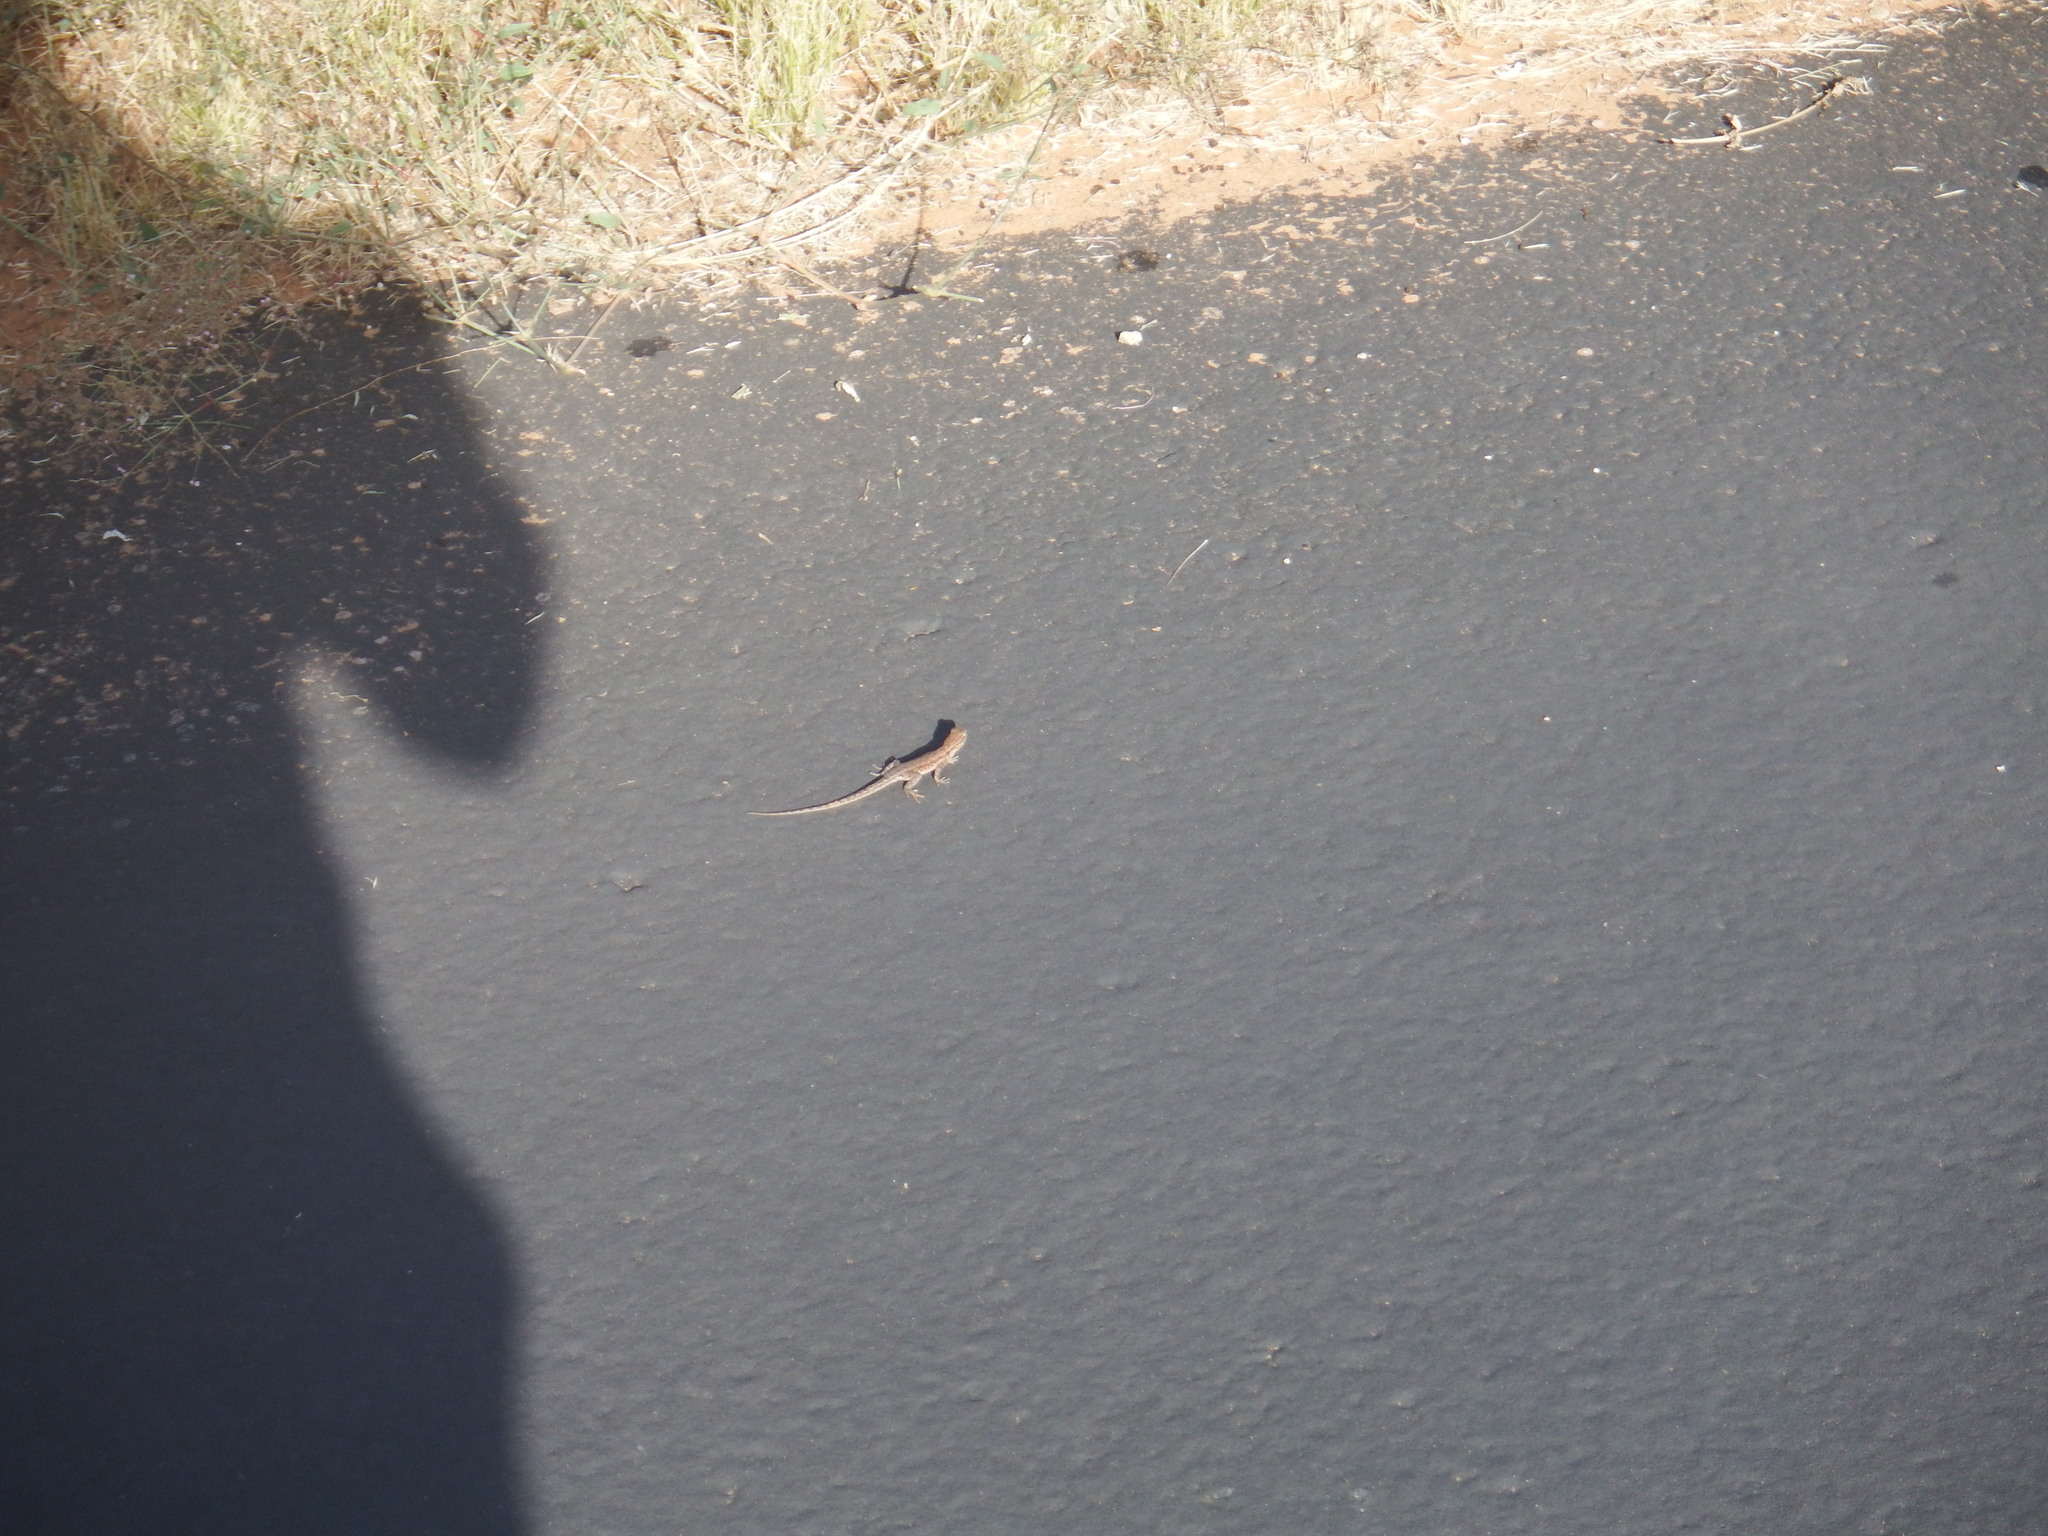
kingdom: Animalia
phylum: Chordata
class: Squamata
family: Phrynosomatidae
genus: Uta
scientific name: Uta stansburiana
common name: Side-blotched lizard
